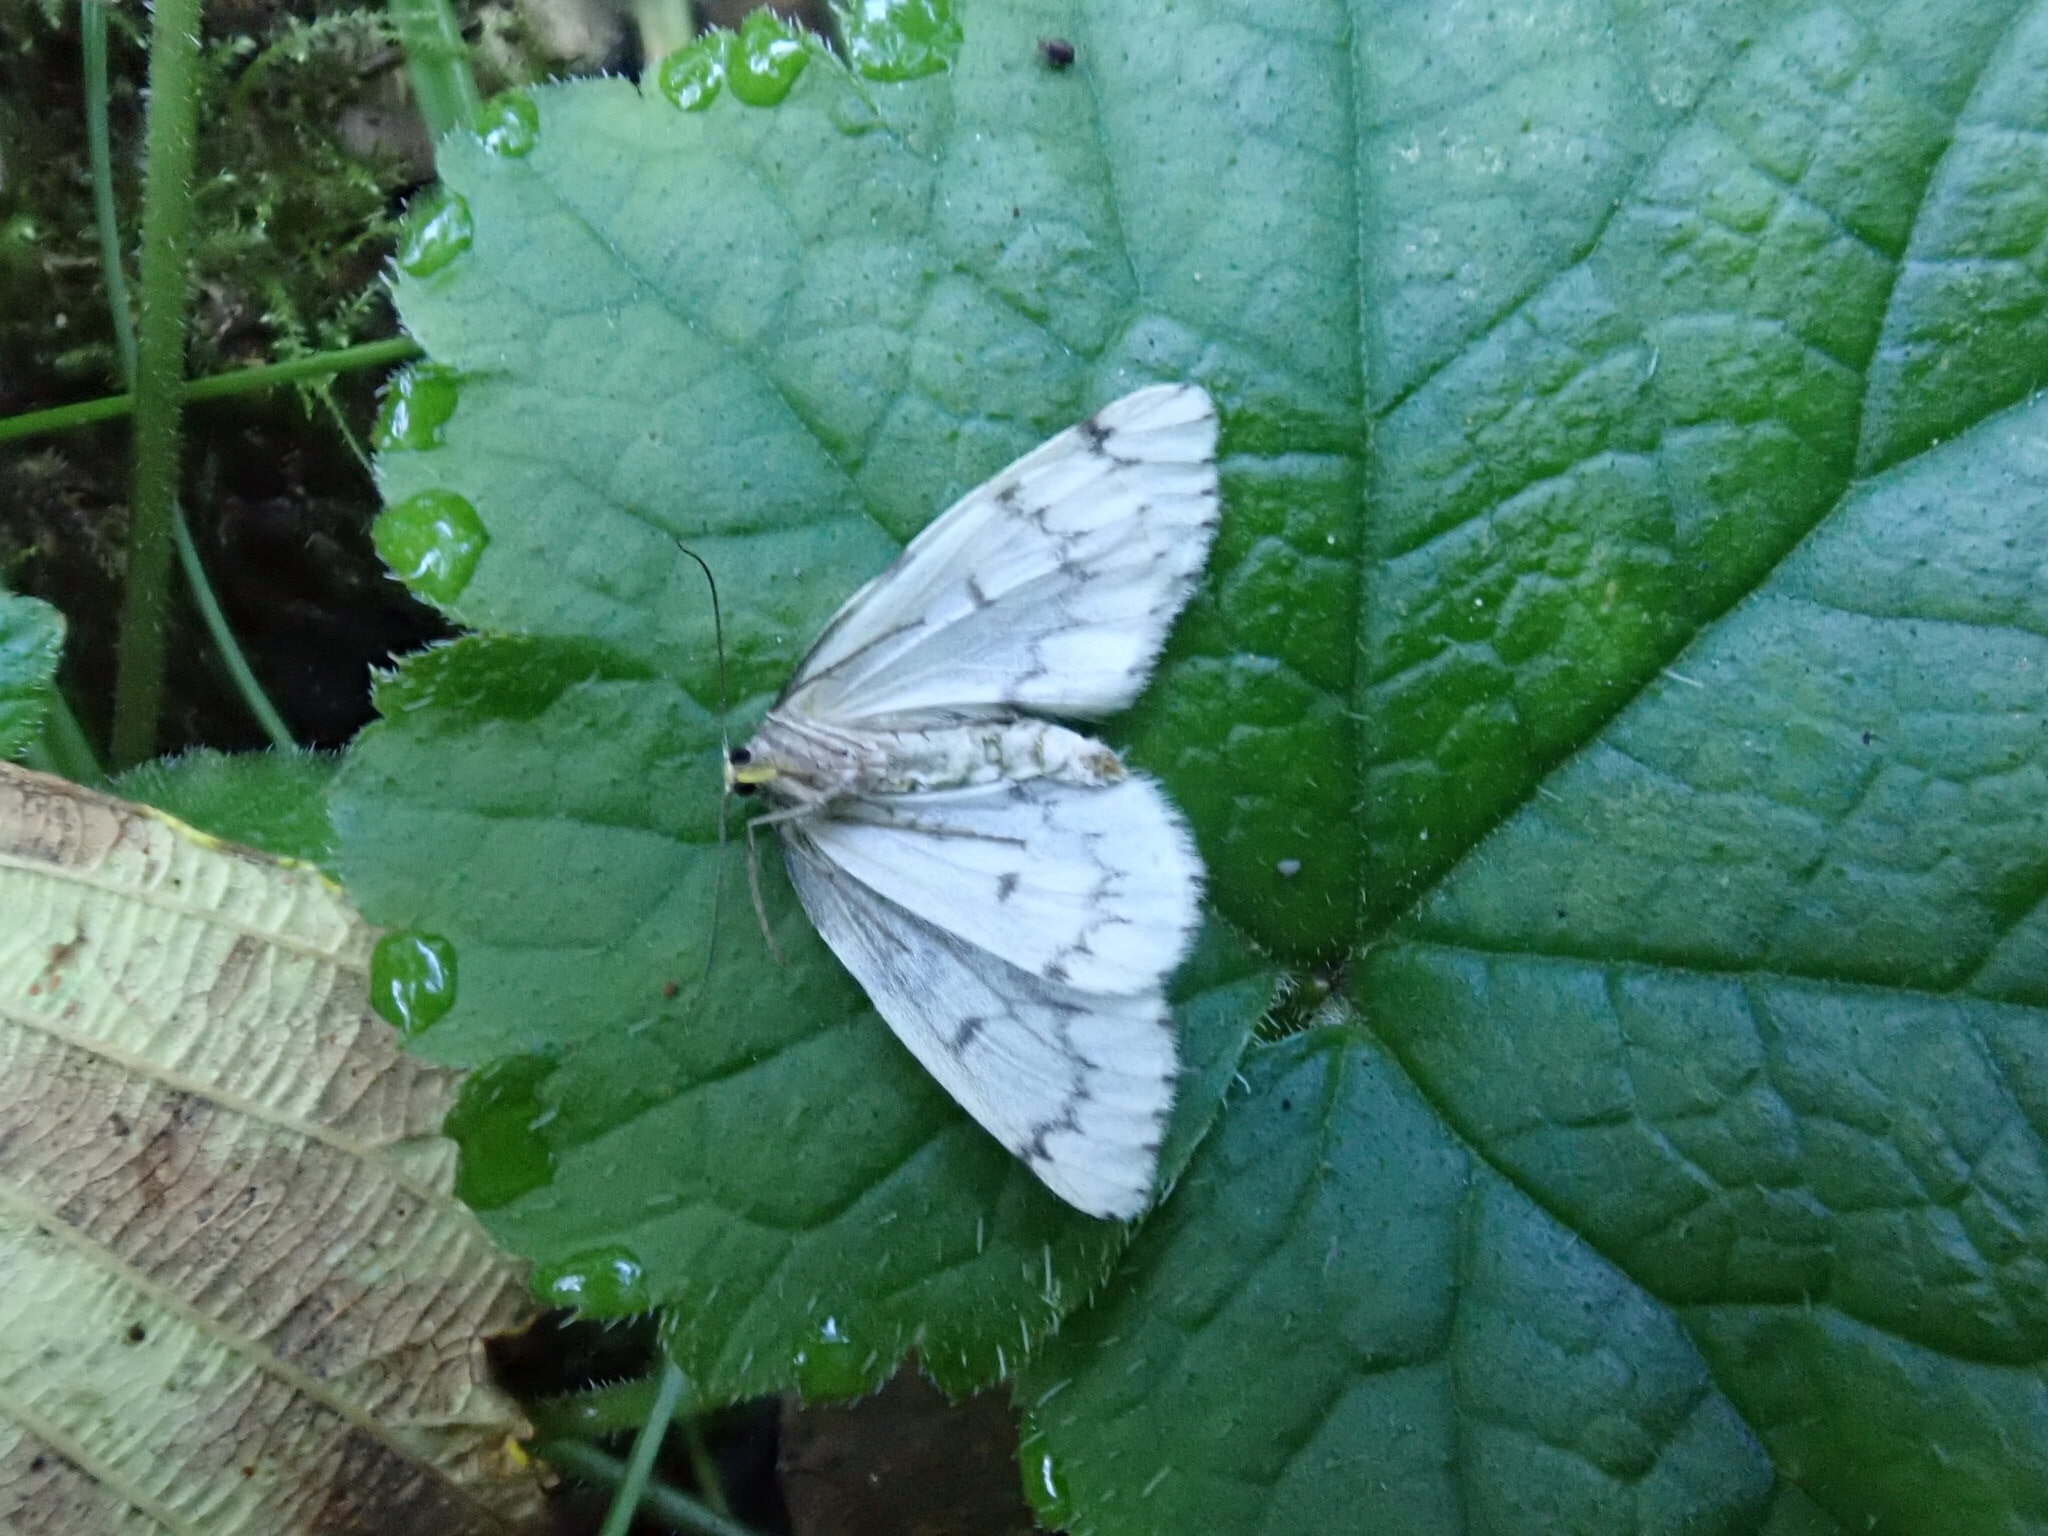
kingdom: Animalia
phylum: Arthropoda
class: Insecta
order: Lepidoptera
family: Geometridae
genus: Nepytia
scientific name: Nepytia phantasmaria
